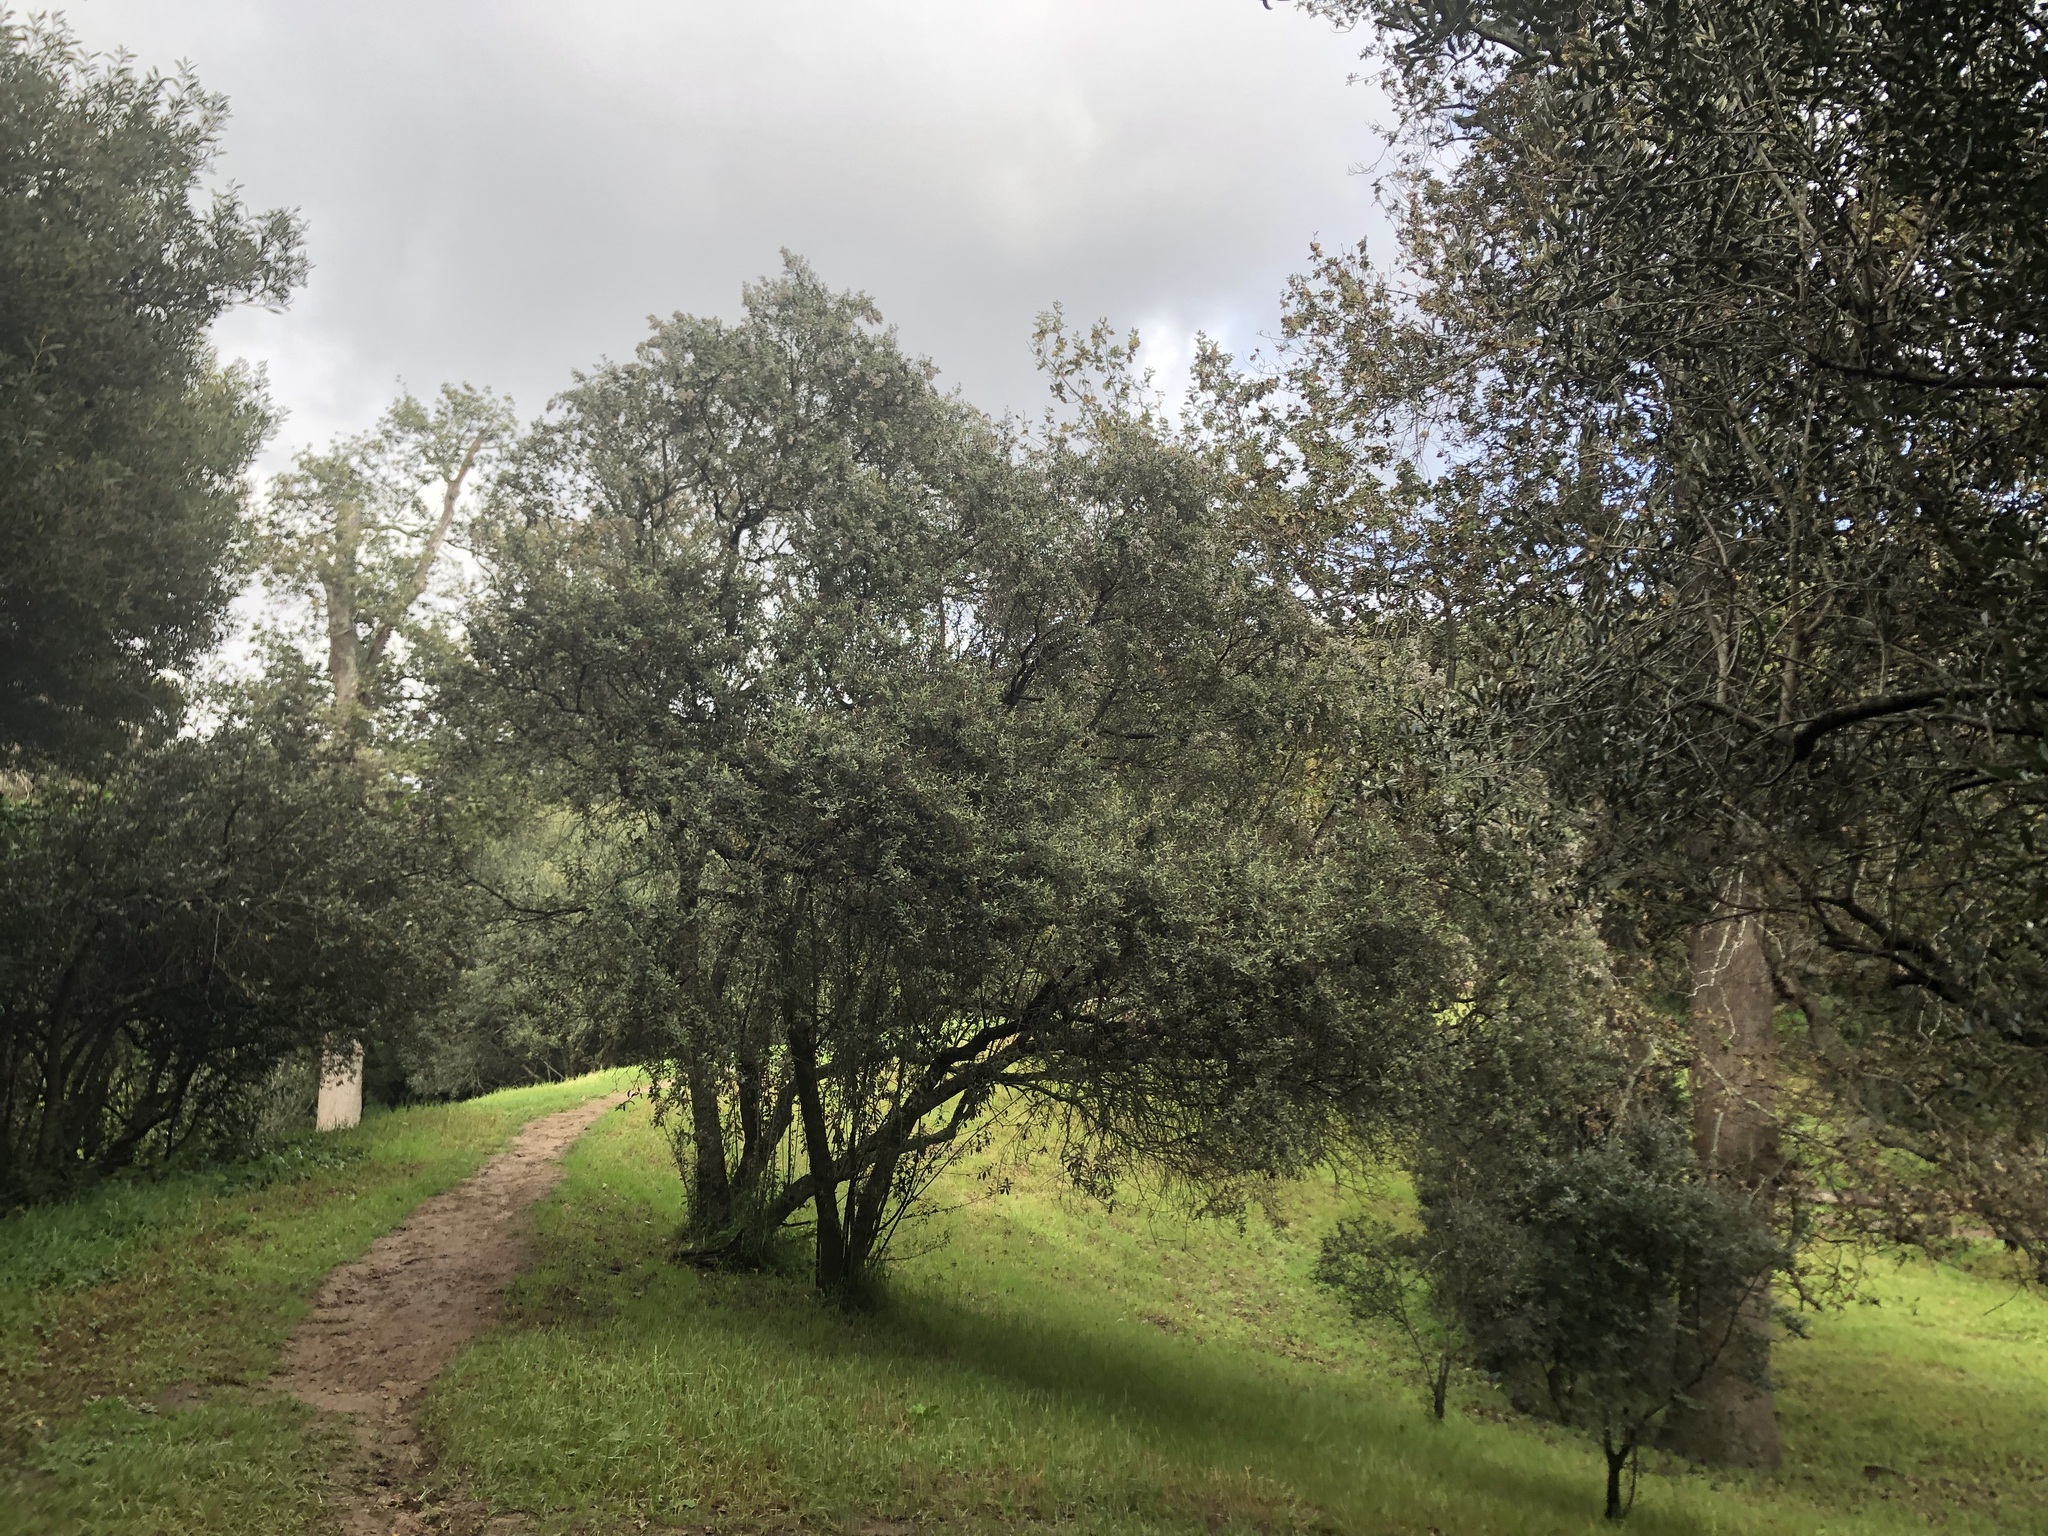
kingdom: Plantae
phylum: Tracheophyta
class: Magnoliopsida
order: Asterales
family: Asteraceae
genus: Tarchonanthus
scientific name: Tarchonanthus littoralis
